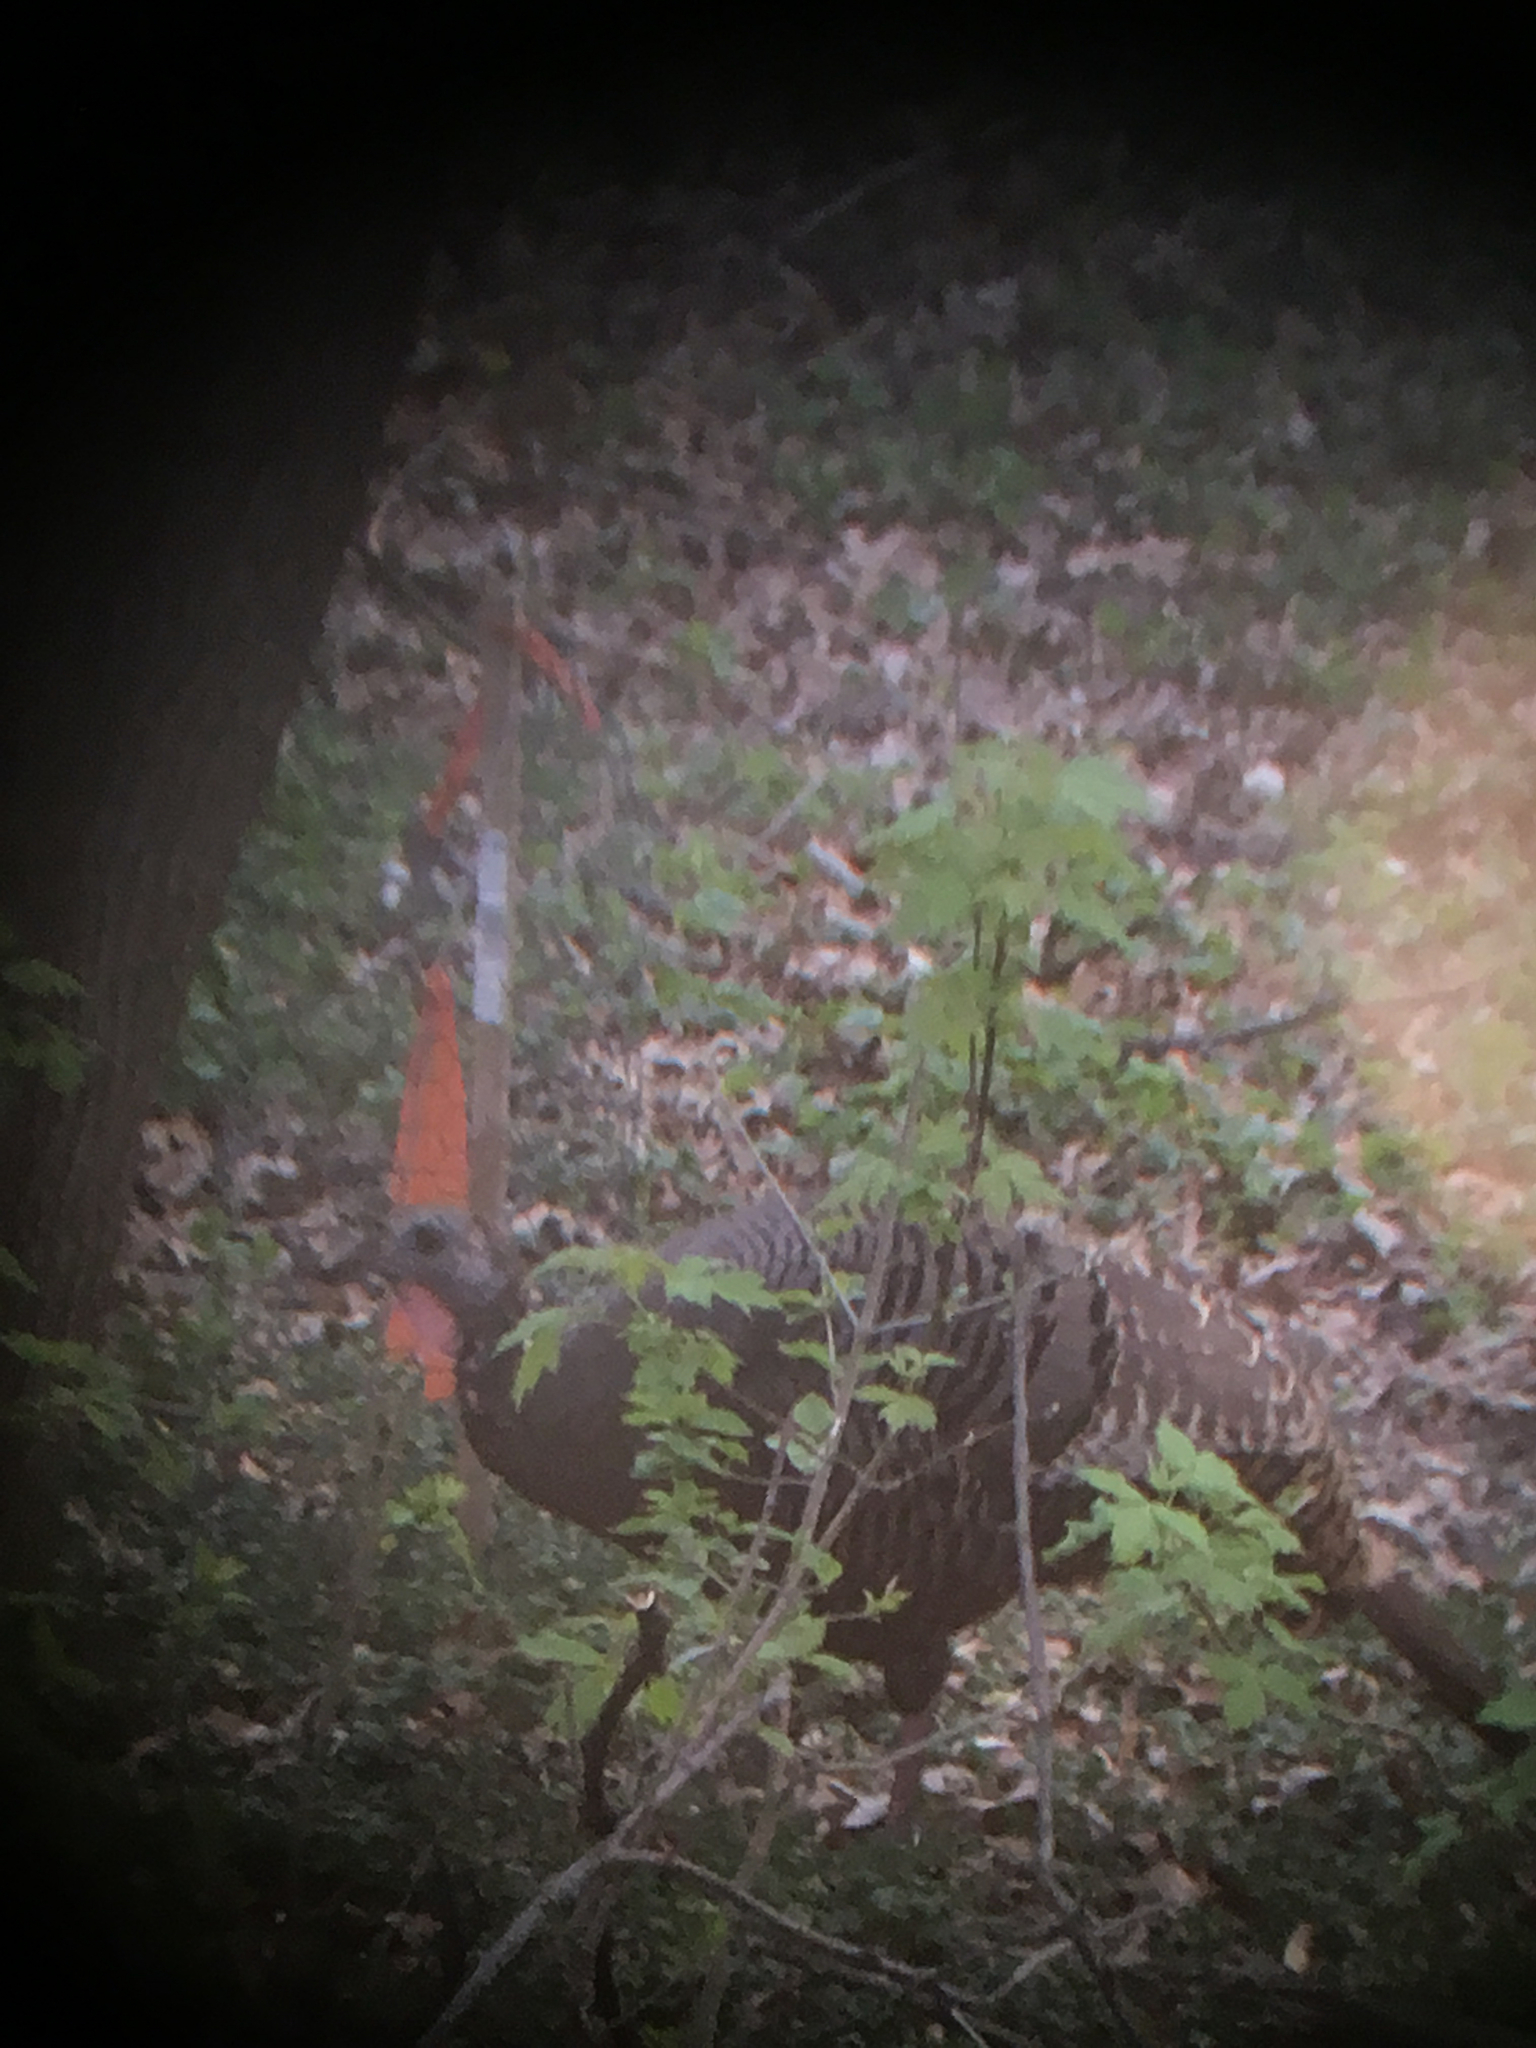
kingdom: Animalia
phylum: Chordata
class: Aves
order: Galliformes
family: Phasianidae
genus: Meleagris
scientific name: Meleagris gallopavo
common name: Wild turkey
